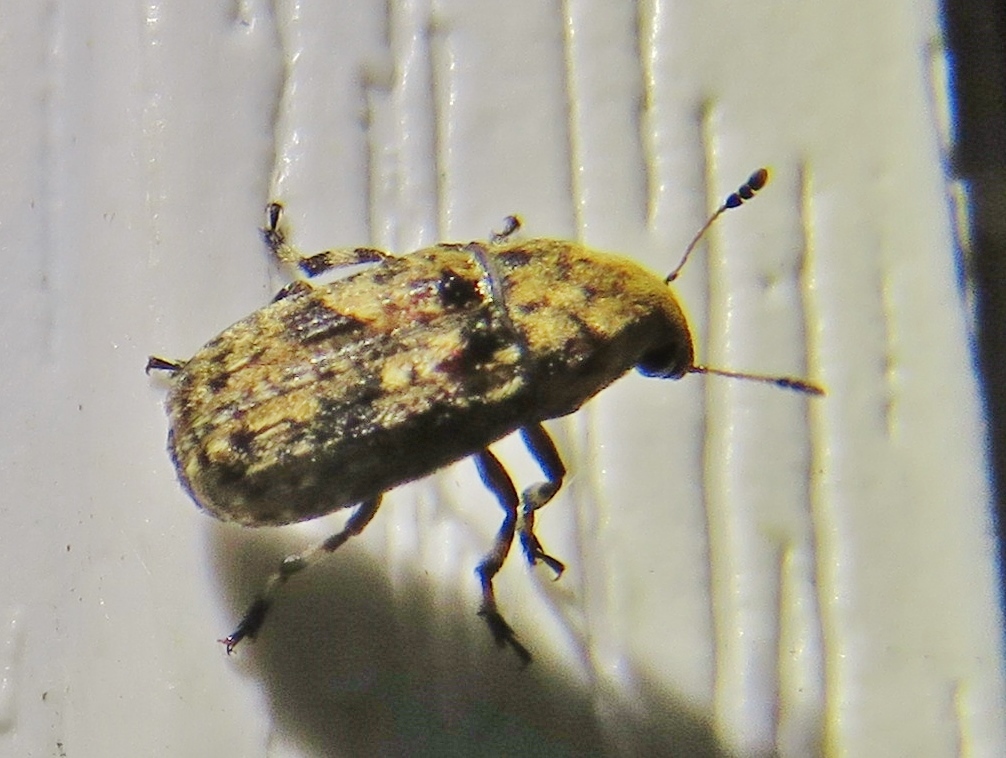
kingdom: Animalia
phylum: Arthropoda
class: Insecta
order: Coleoptera
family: Anthribidae
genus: Euparius
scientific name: Euparius marmoreus
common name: Marbled fungus weevil
